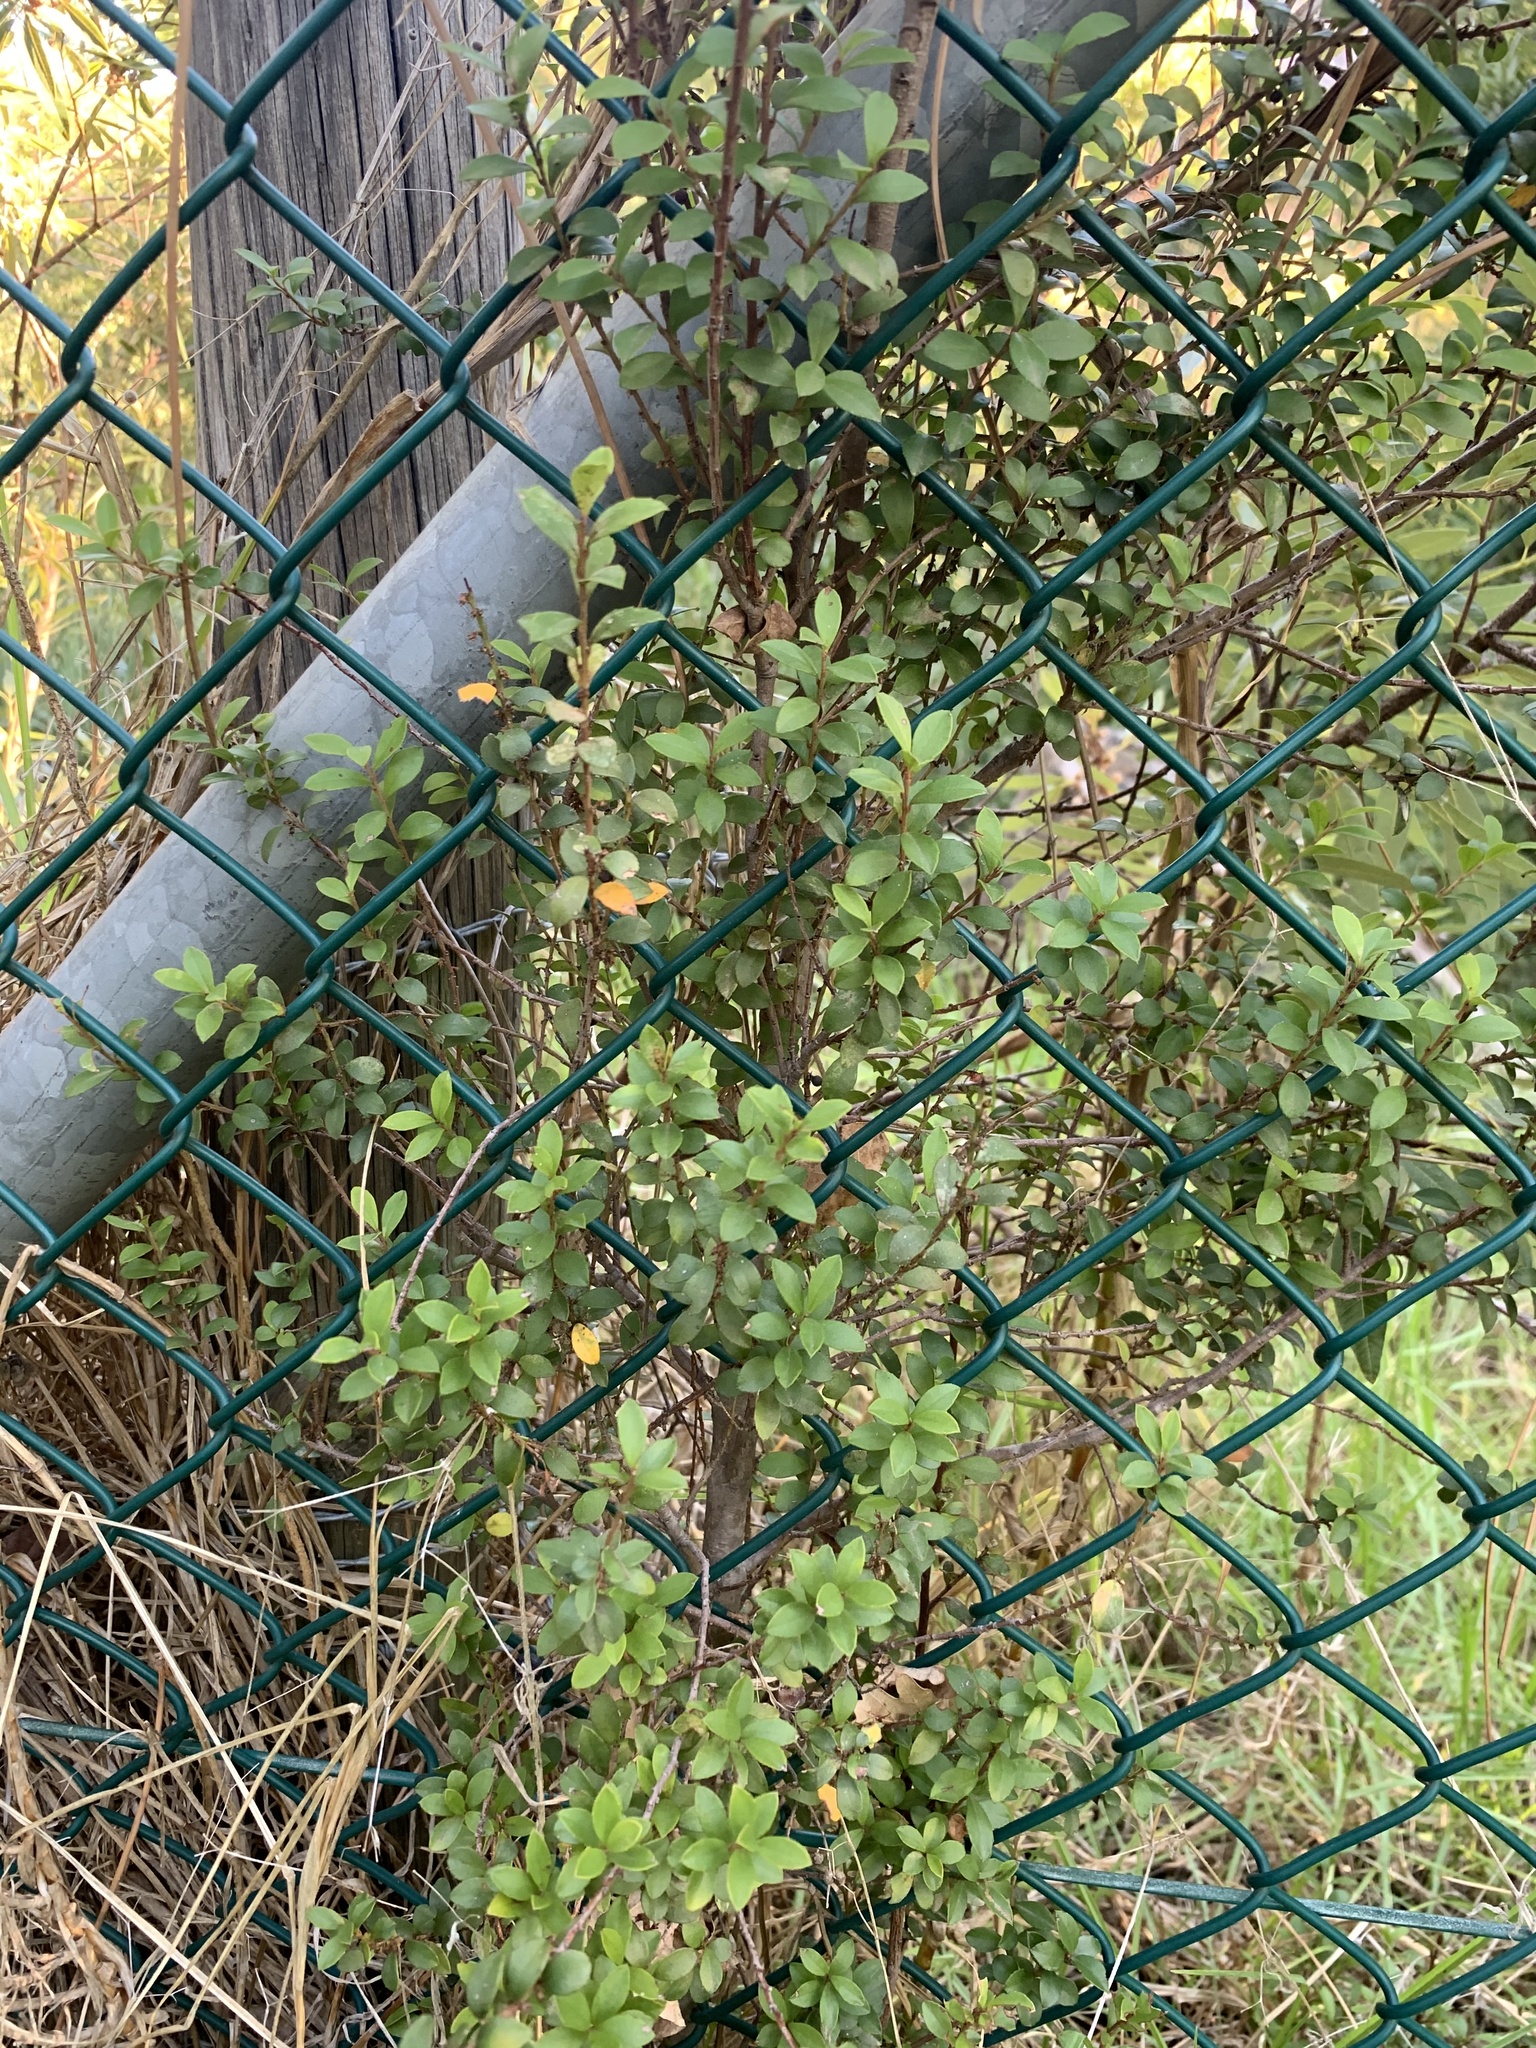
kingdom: Plantae
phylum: Tracheophyta
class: Magnoliopsida
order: Ericales
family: Primulaceae
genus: Myrsine
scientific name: Myrsine africana
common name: African-boxwood
